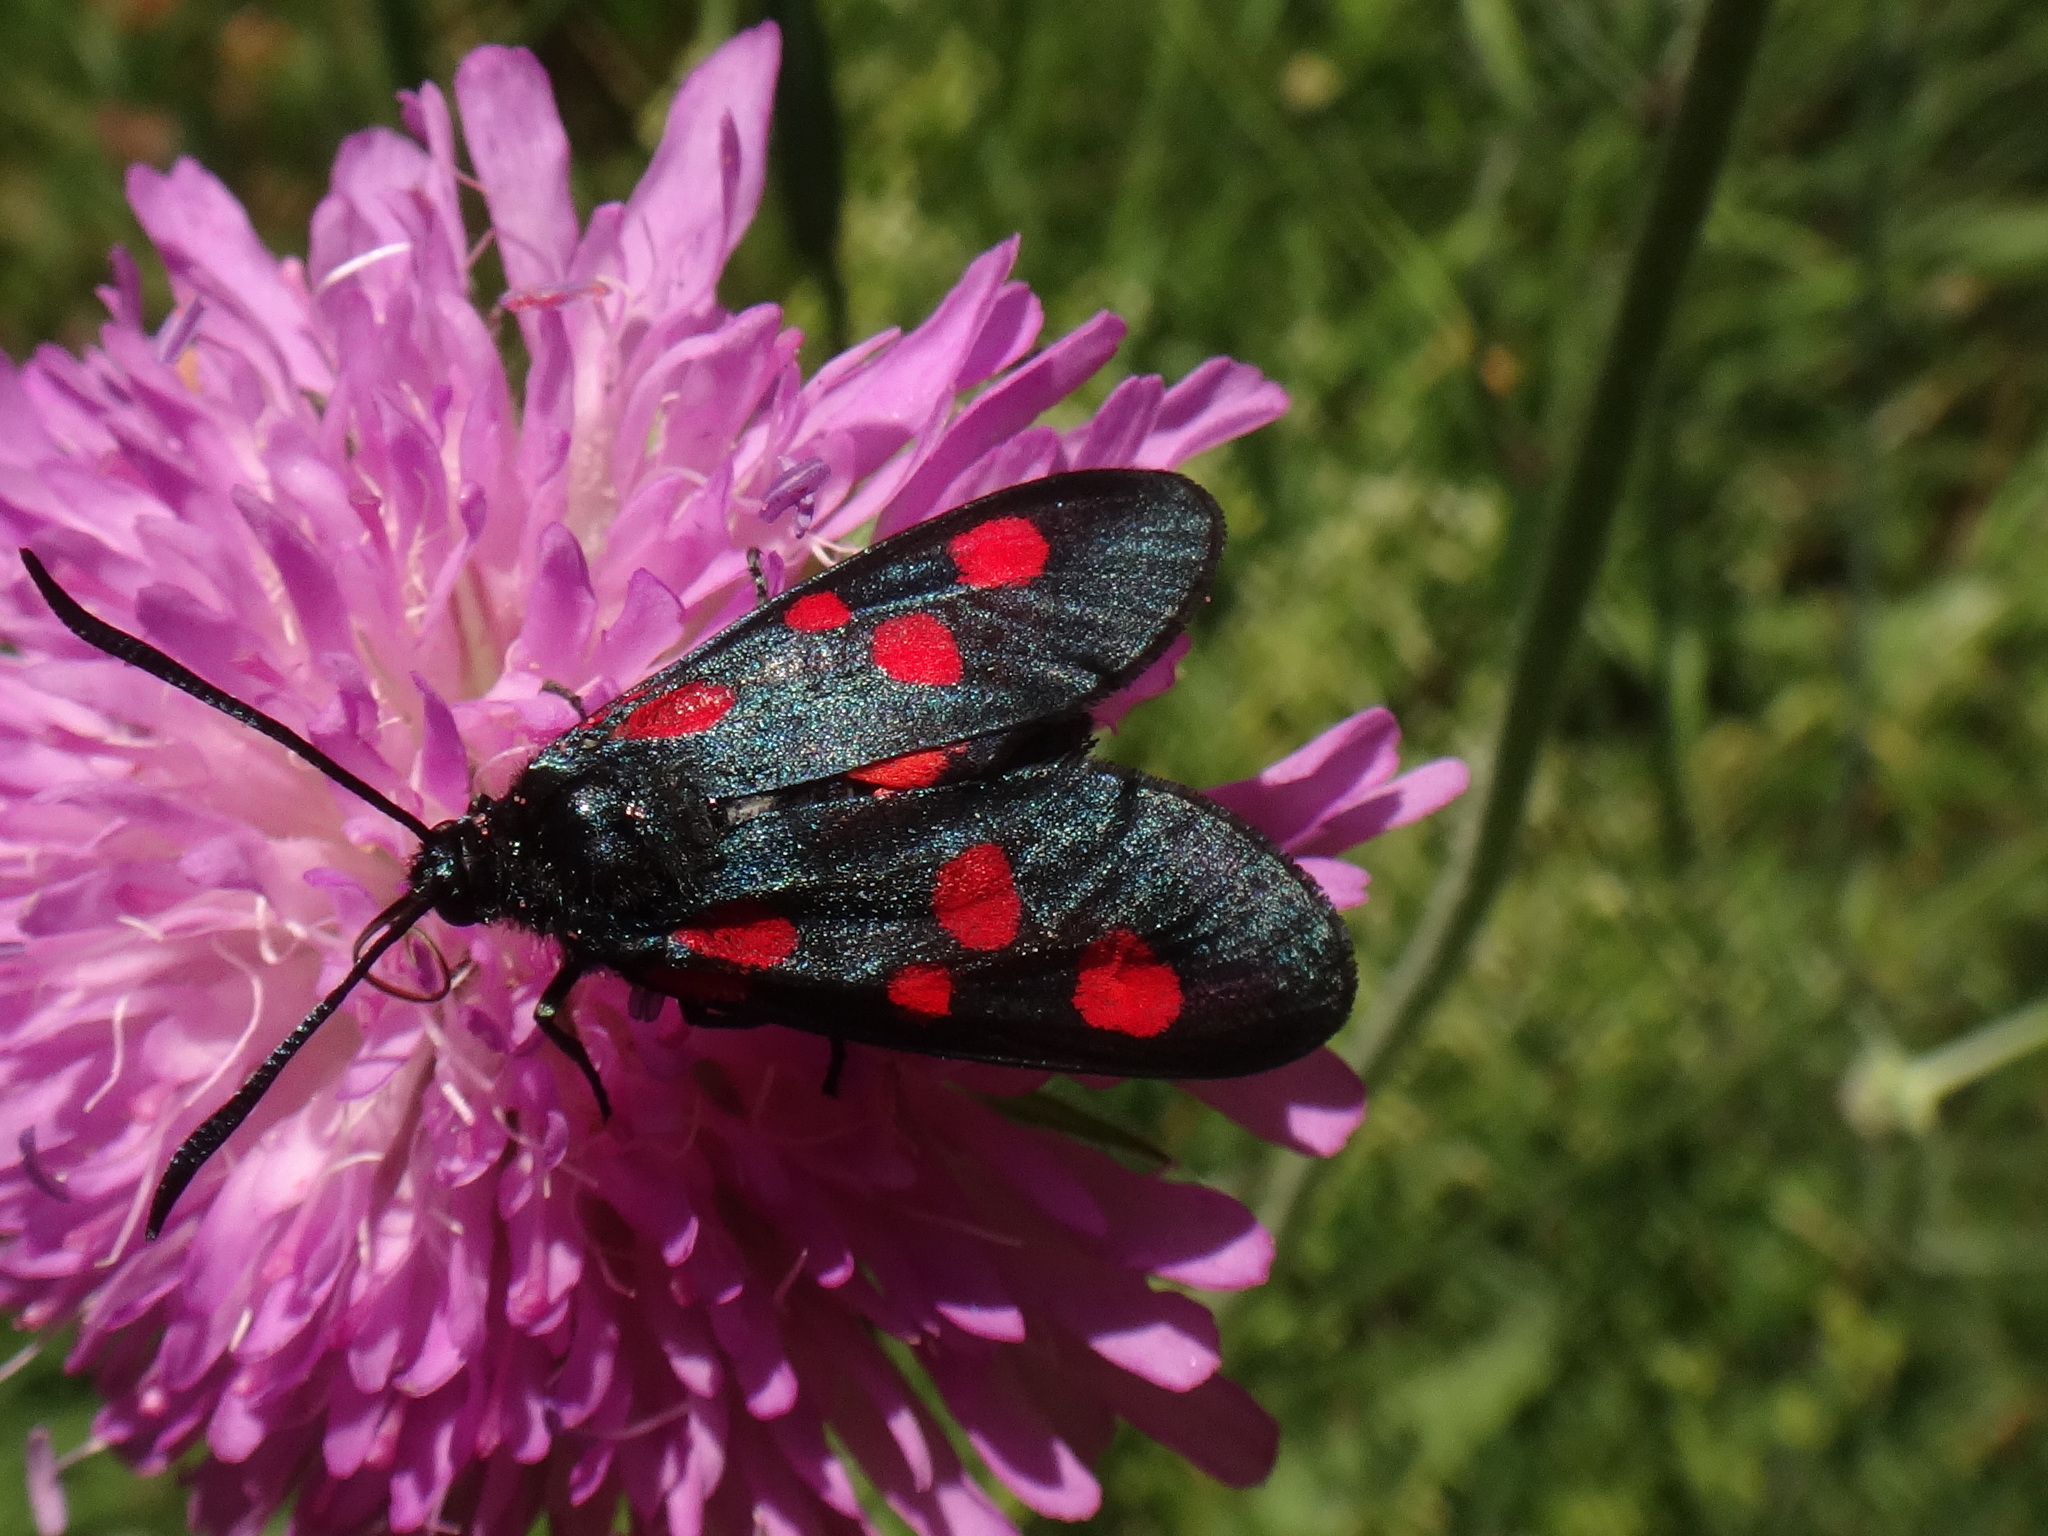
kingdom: Animalia
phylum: Arthropoda
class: Insecta
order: Lepidoptera
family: Zygaenidae
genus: Zygaena
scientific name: Zygaena viciae
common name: New forest burnet
